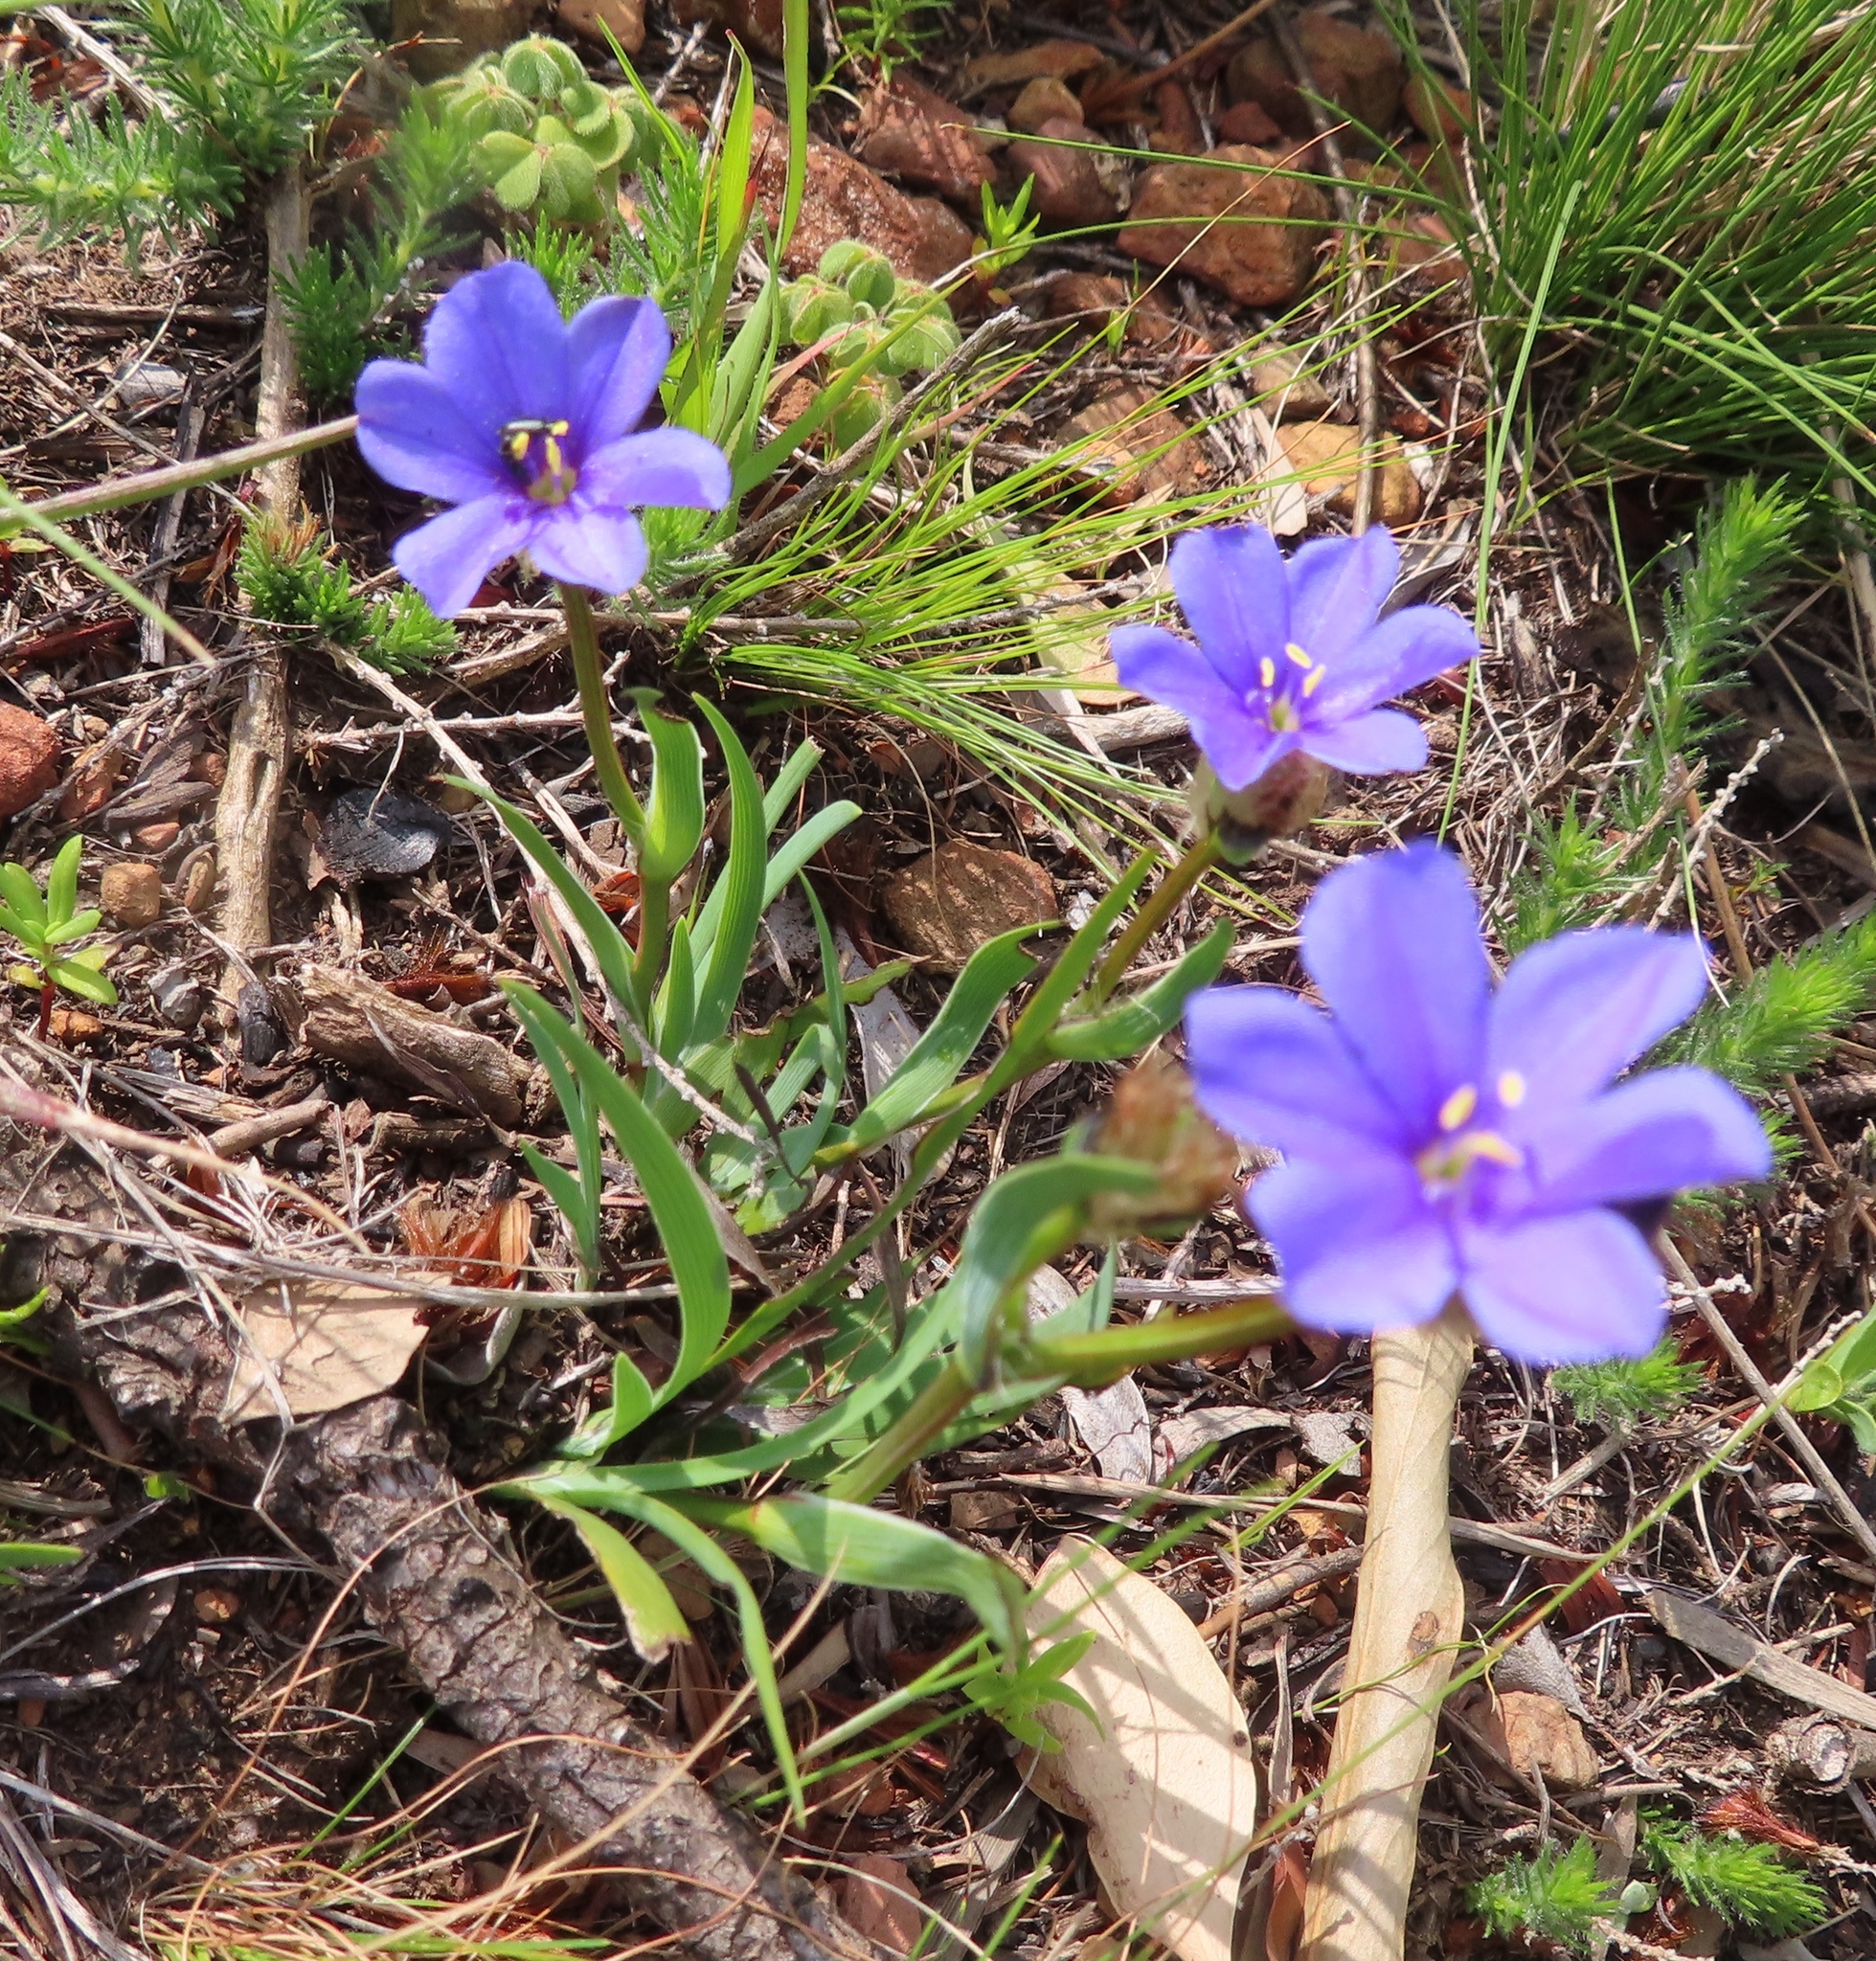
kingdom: Plantae
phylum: Tracheophyta
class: Liliopsida
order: Asparagales
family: Iridaceae
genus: Aristea
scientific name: Aristea africana
